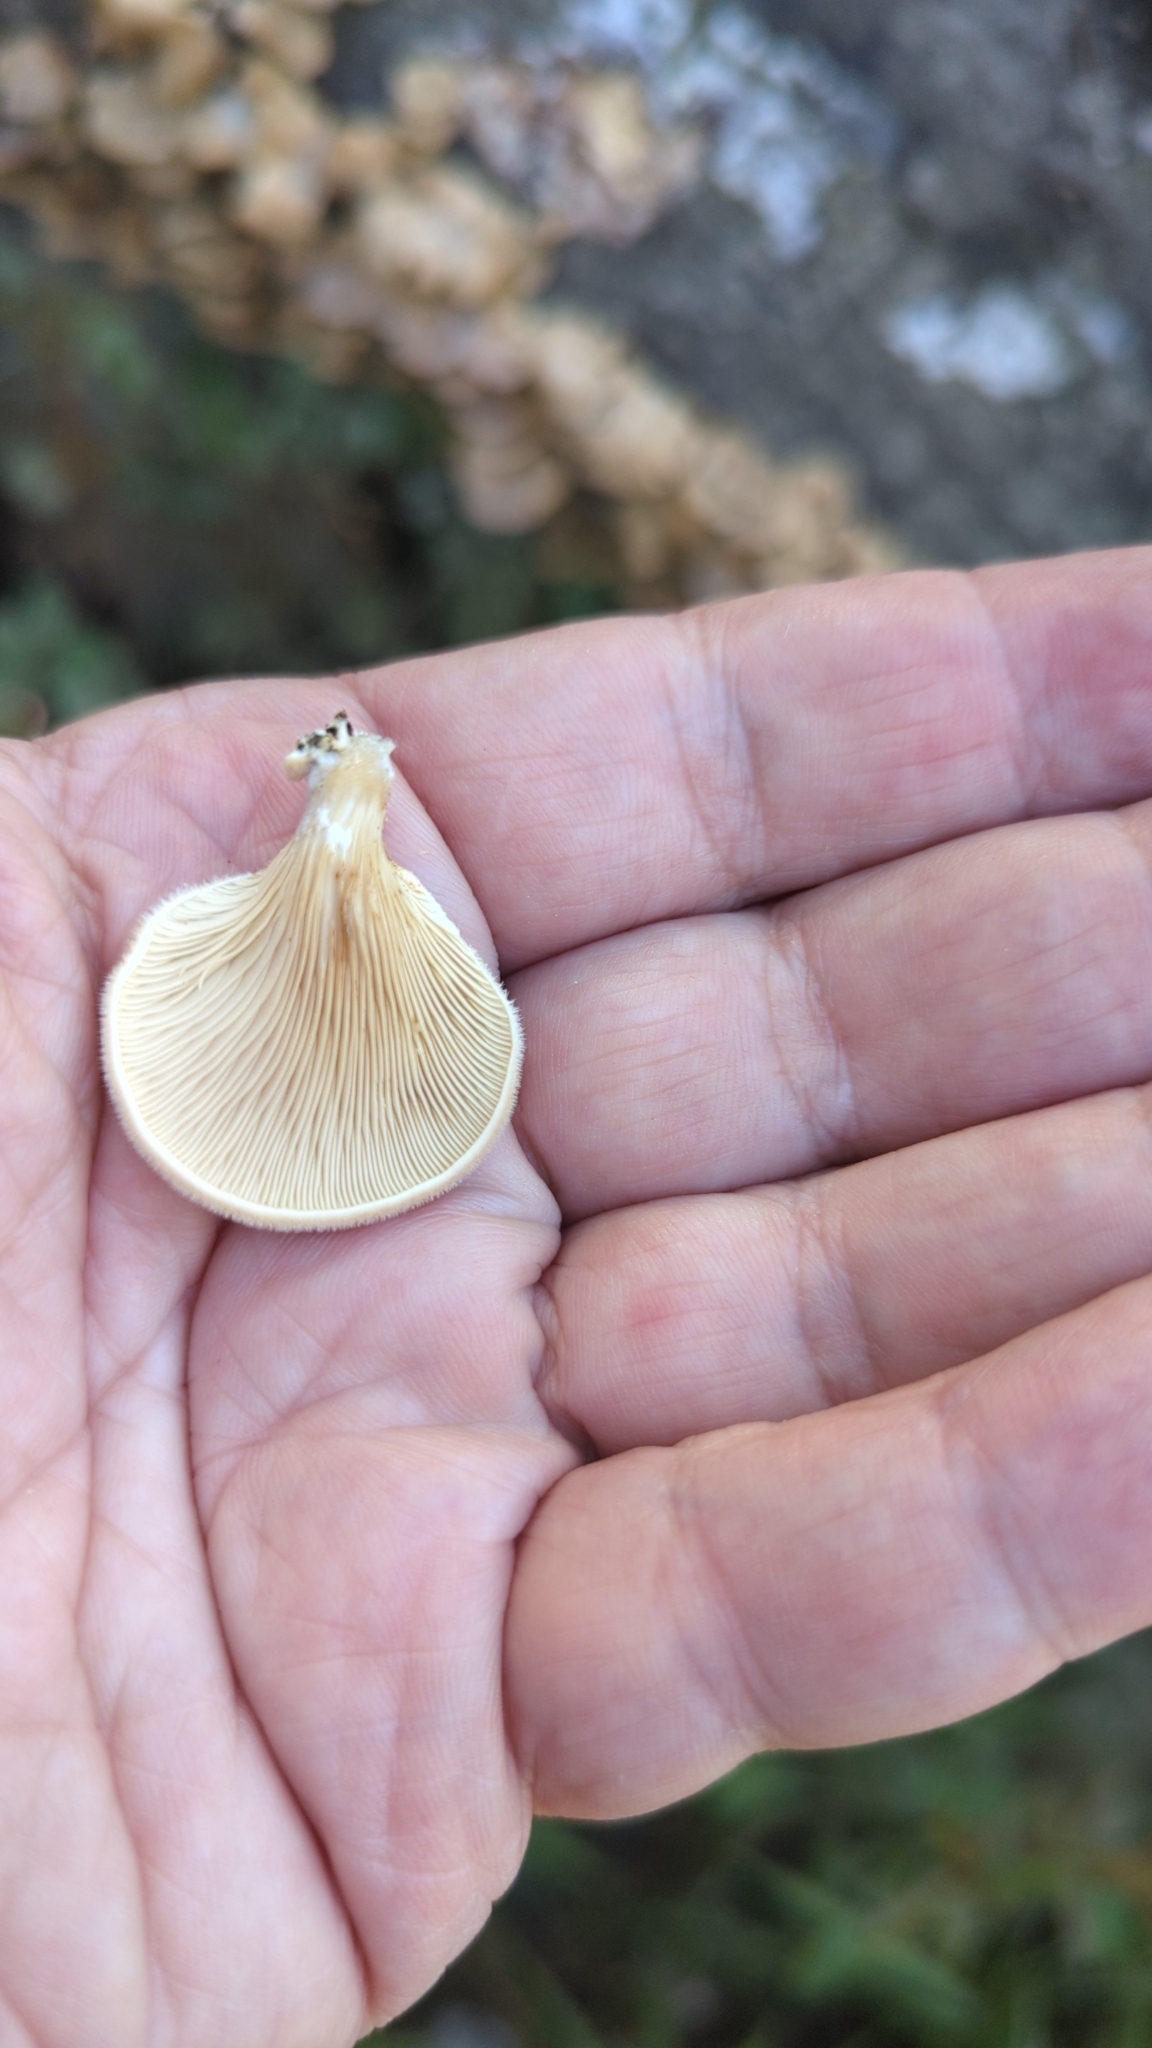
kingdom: Fungi
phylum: Basidiomycota
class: Agaricomycetes
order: Agaricales
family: Pleurotaceae
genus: Hohenbuehelia
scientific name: Hohenbuehelia angustata
